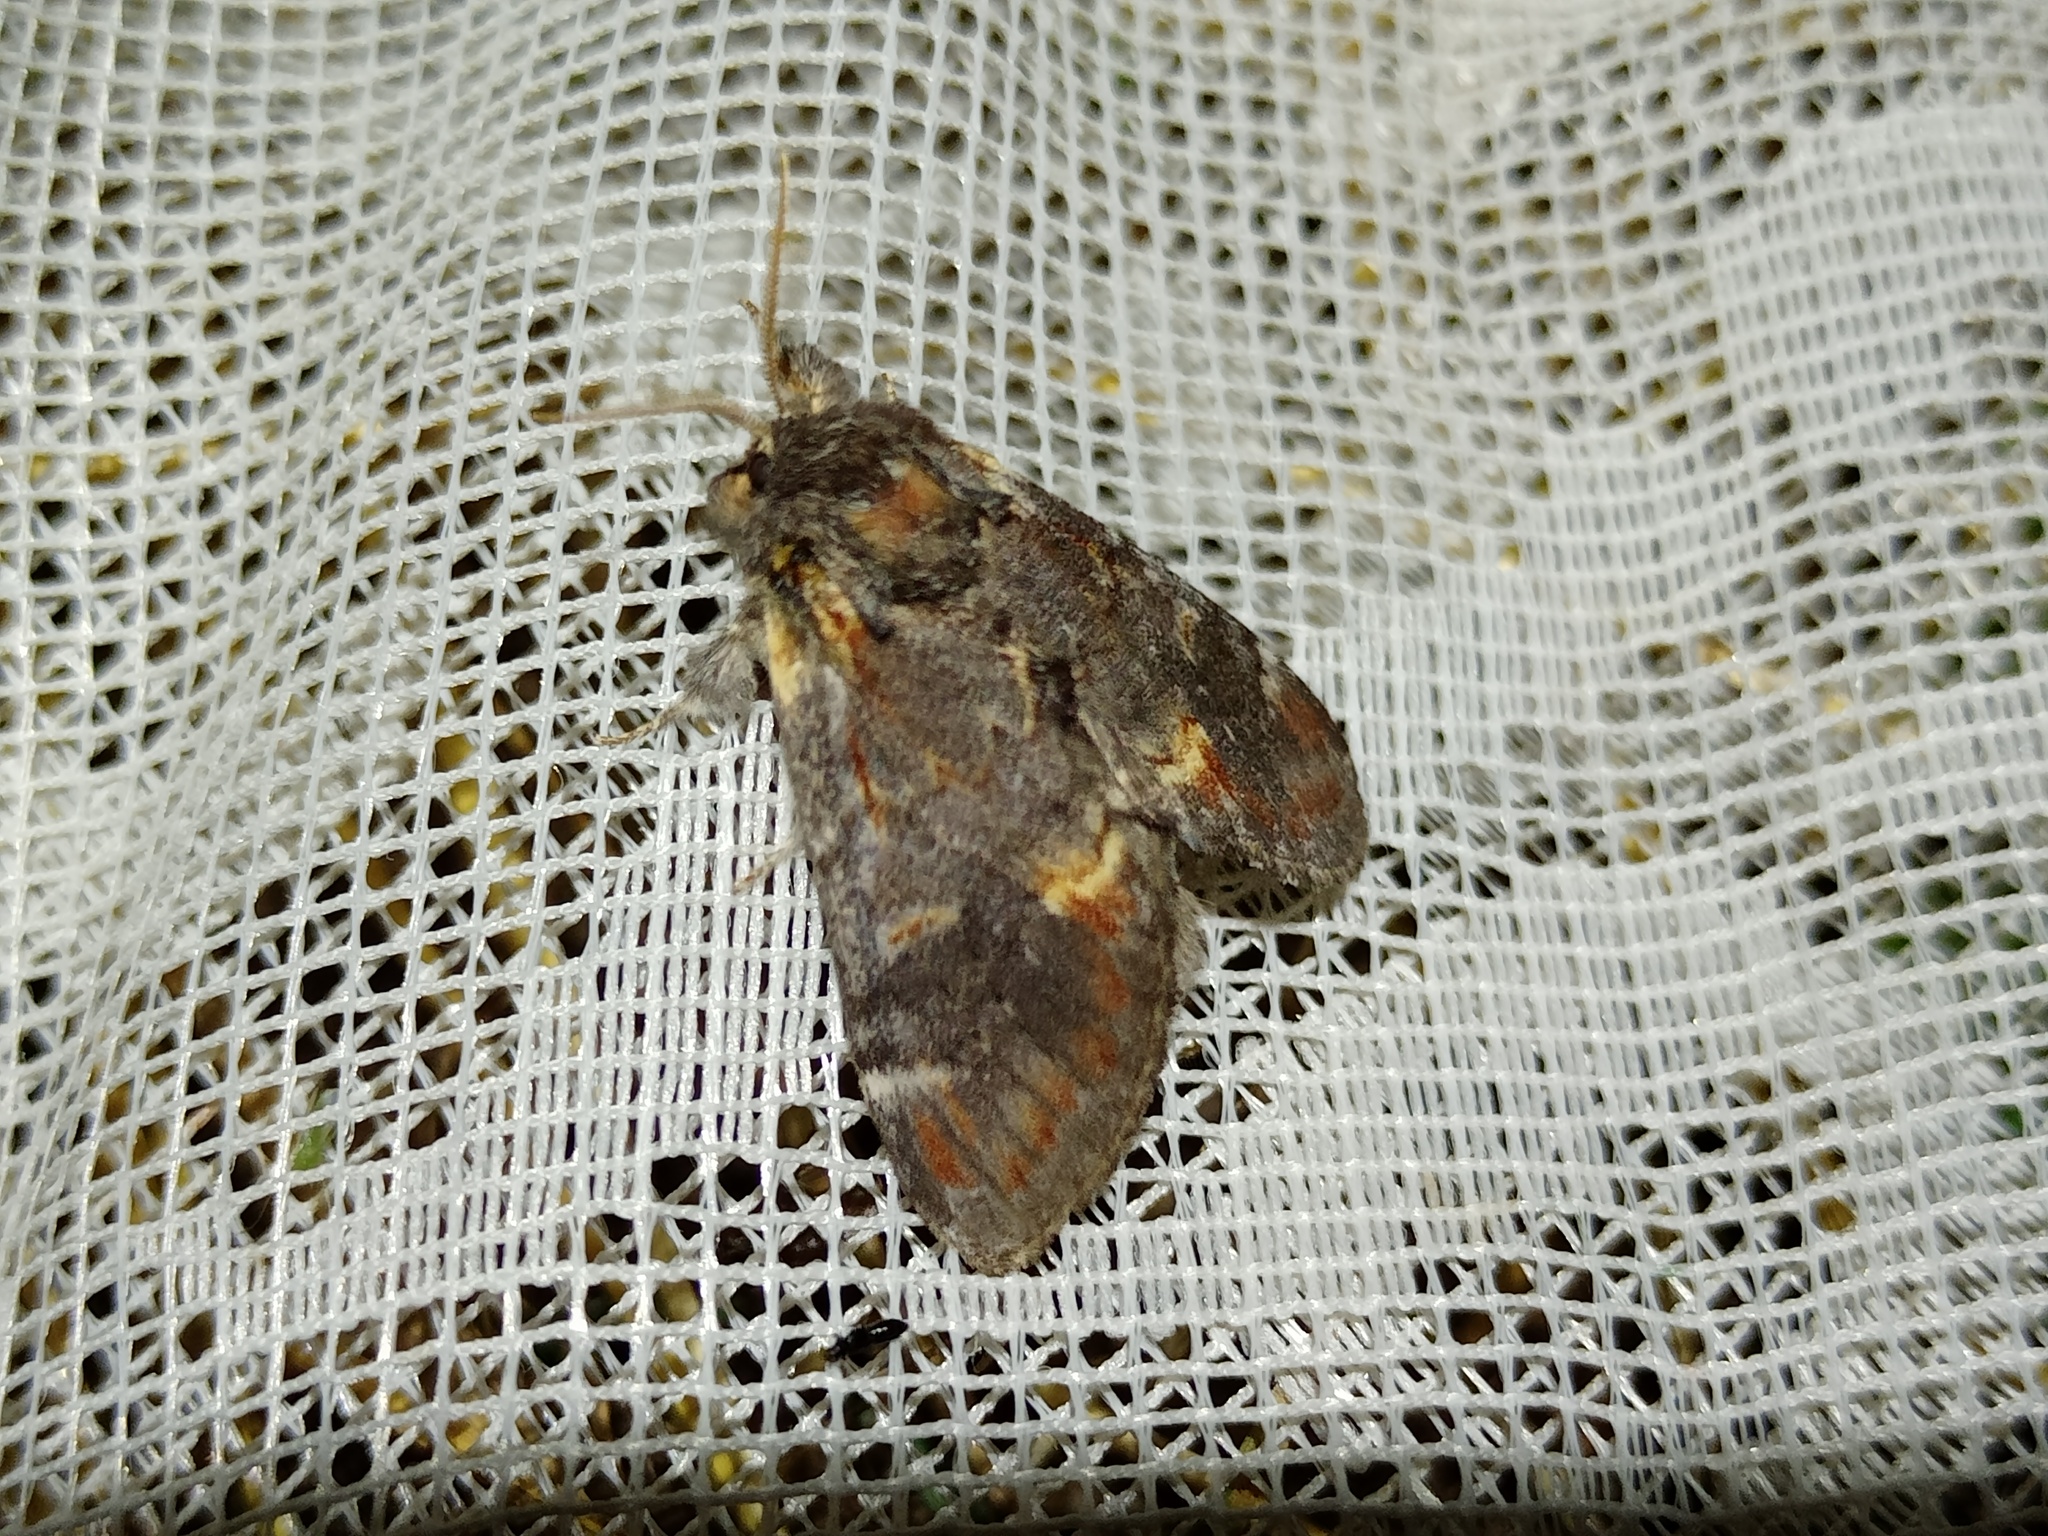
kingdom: Animalia
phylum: Arthropoda
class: Insecta
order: Lepidoptera
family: Notodontidae
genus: Notodonta
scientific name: Notodonta dromedarius
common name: Iron prominent
